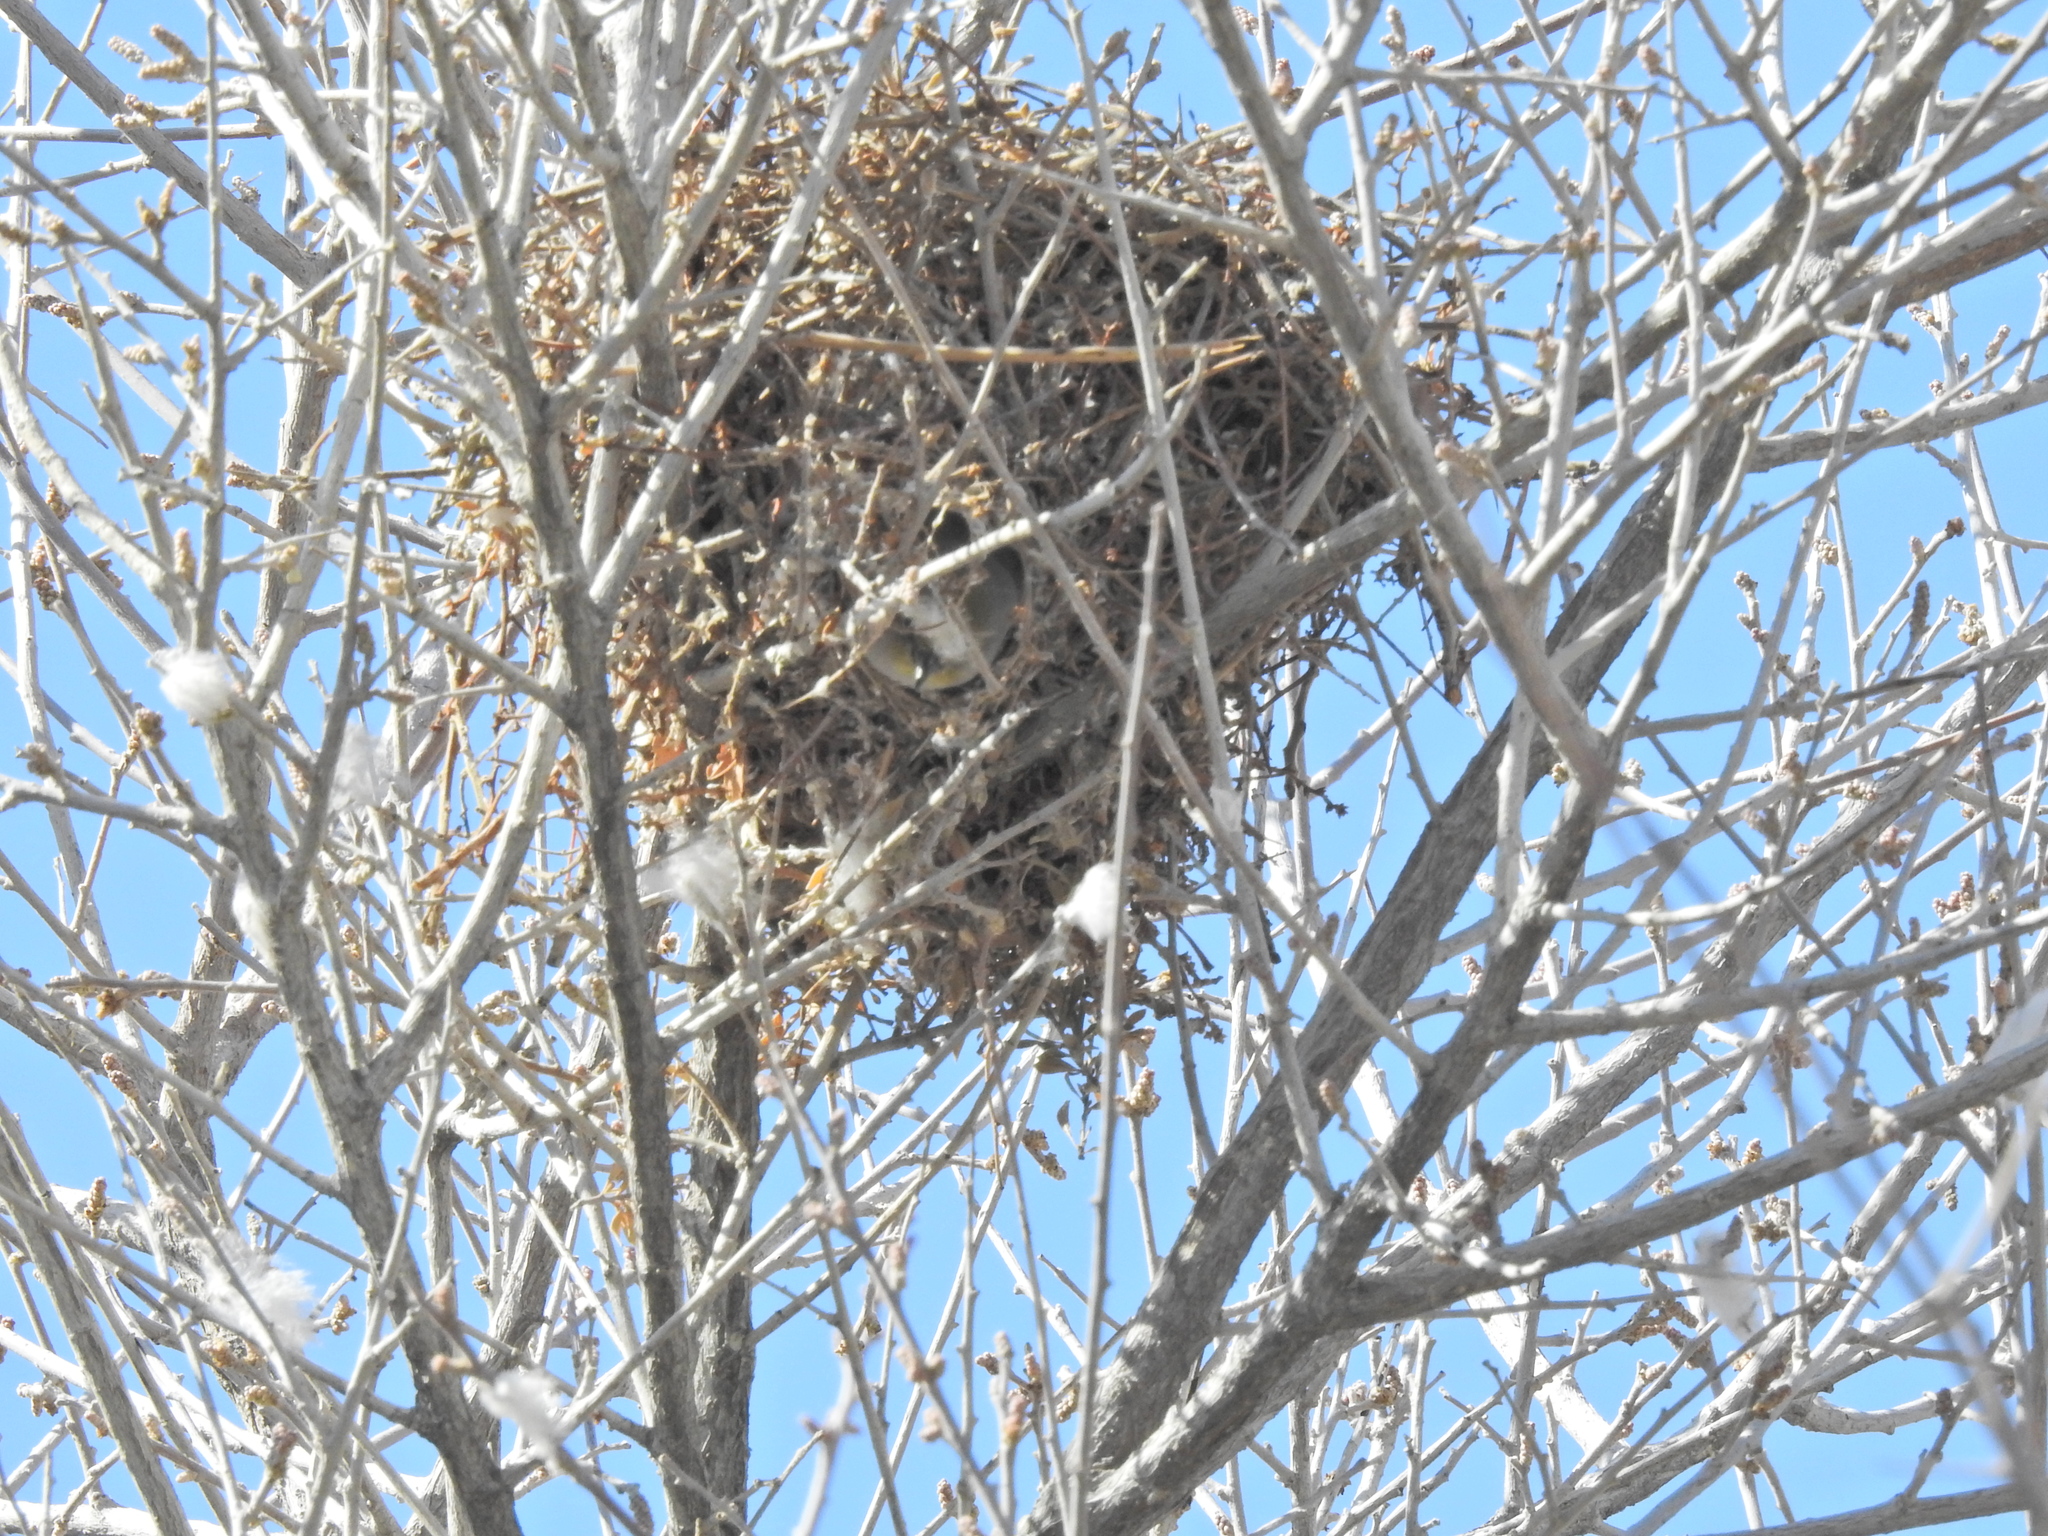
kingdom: Animalia
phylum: Chordata
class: Aves
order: Passeriformes
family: Remizidae
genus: Auriparus
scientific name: Auriparus flaviceps
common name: Verdin
